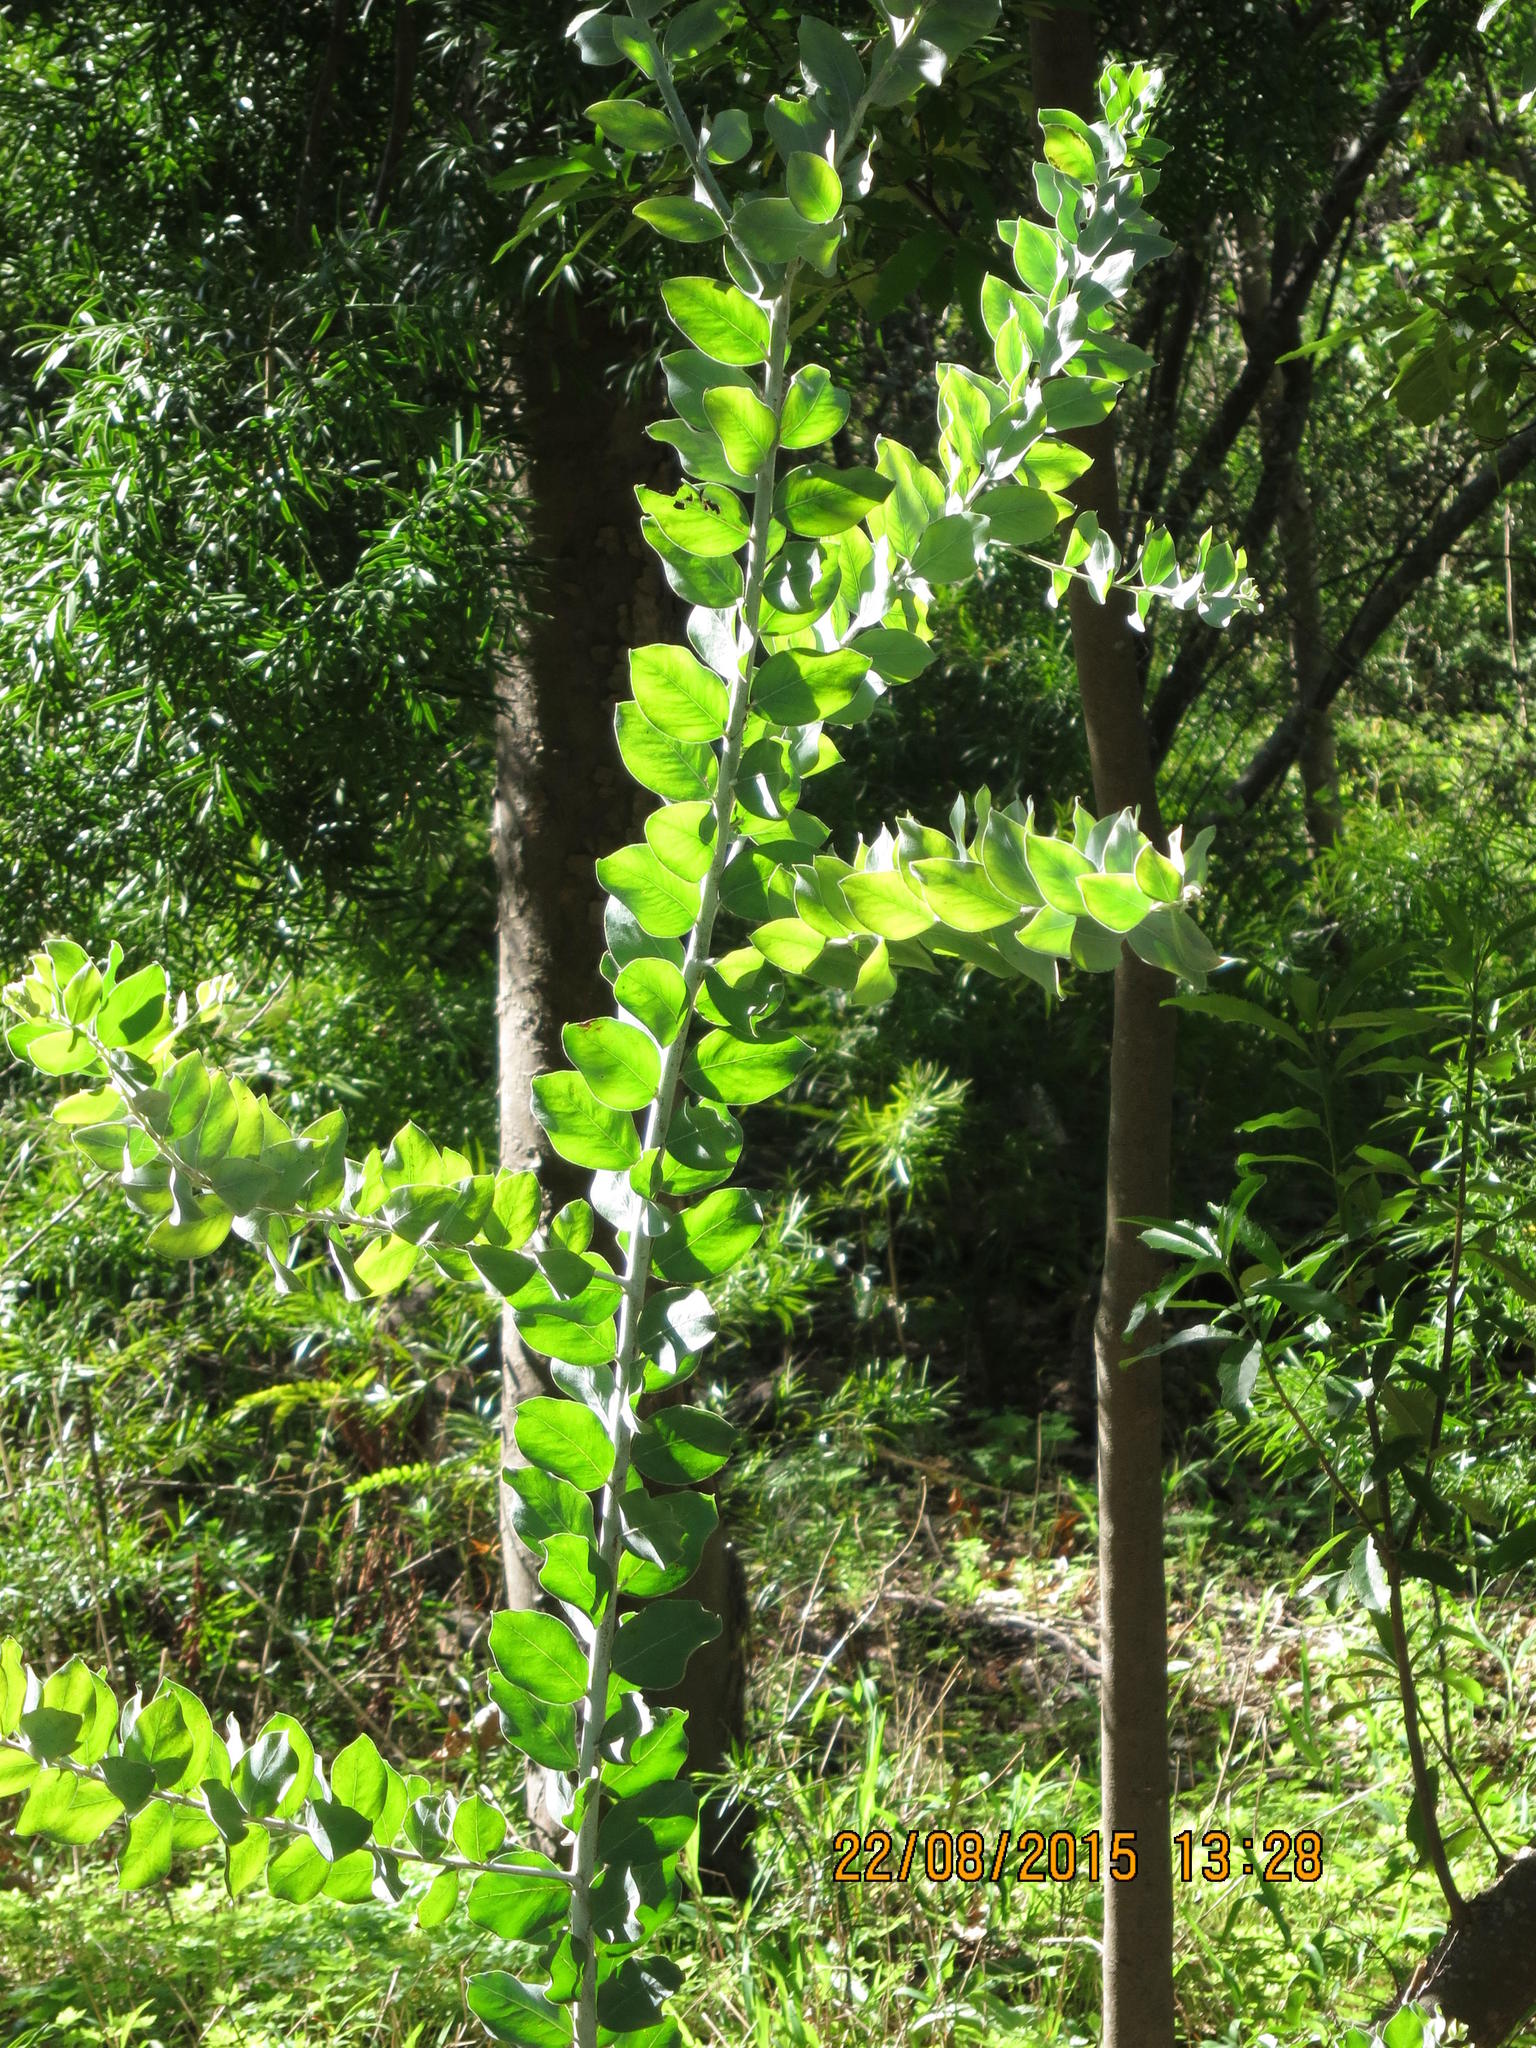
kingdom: Plantae
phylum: Tracheophyta
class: Magnoliopsida
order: Fabales
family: Fabaceae
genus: Acacia
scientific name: Acacia podalyriifolia
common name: Pearl wattle
